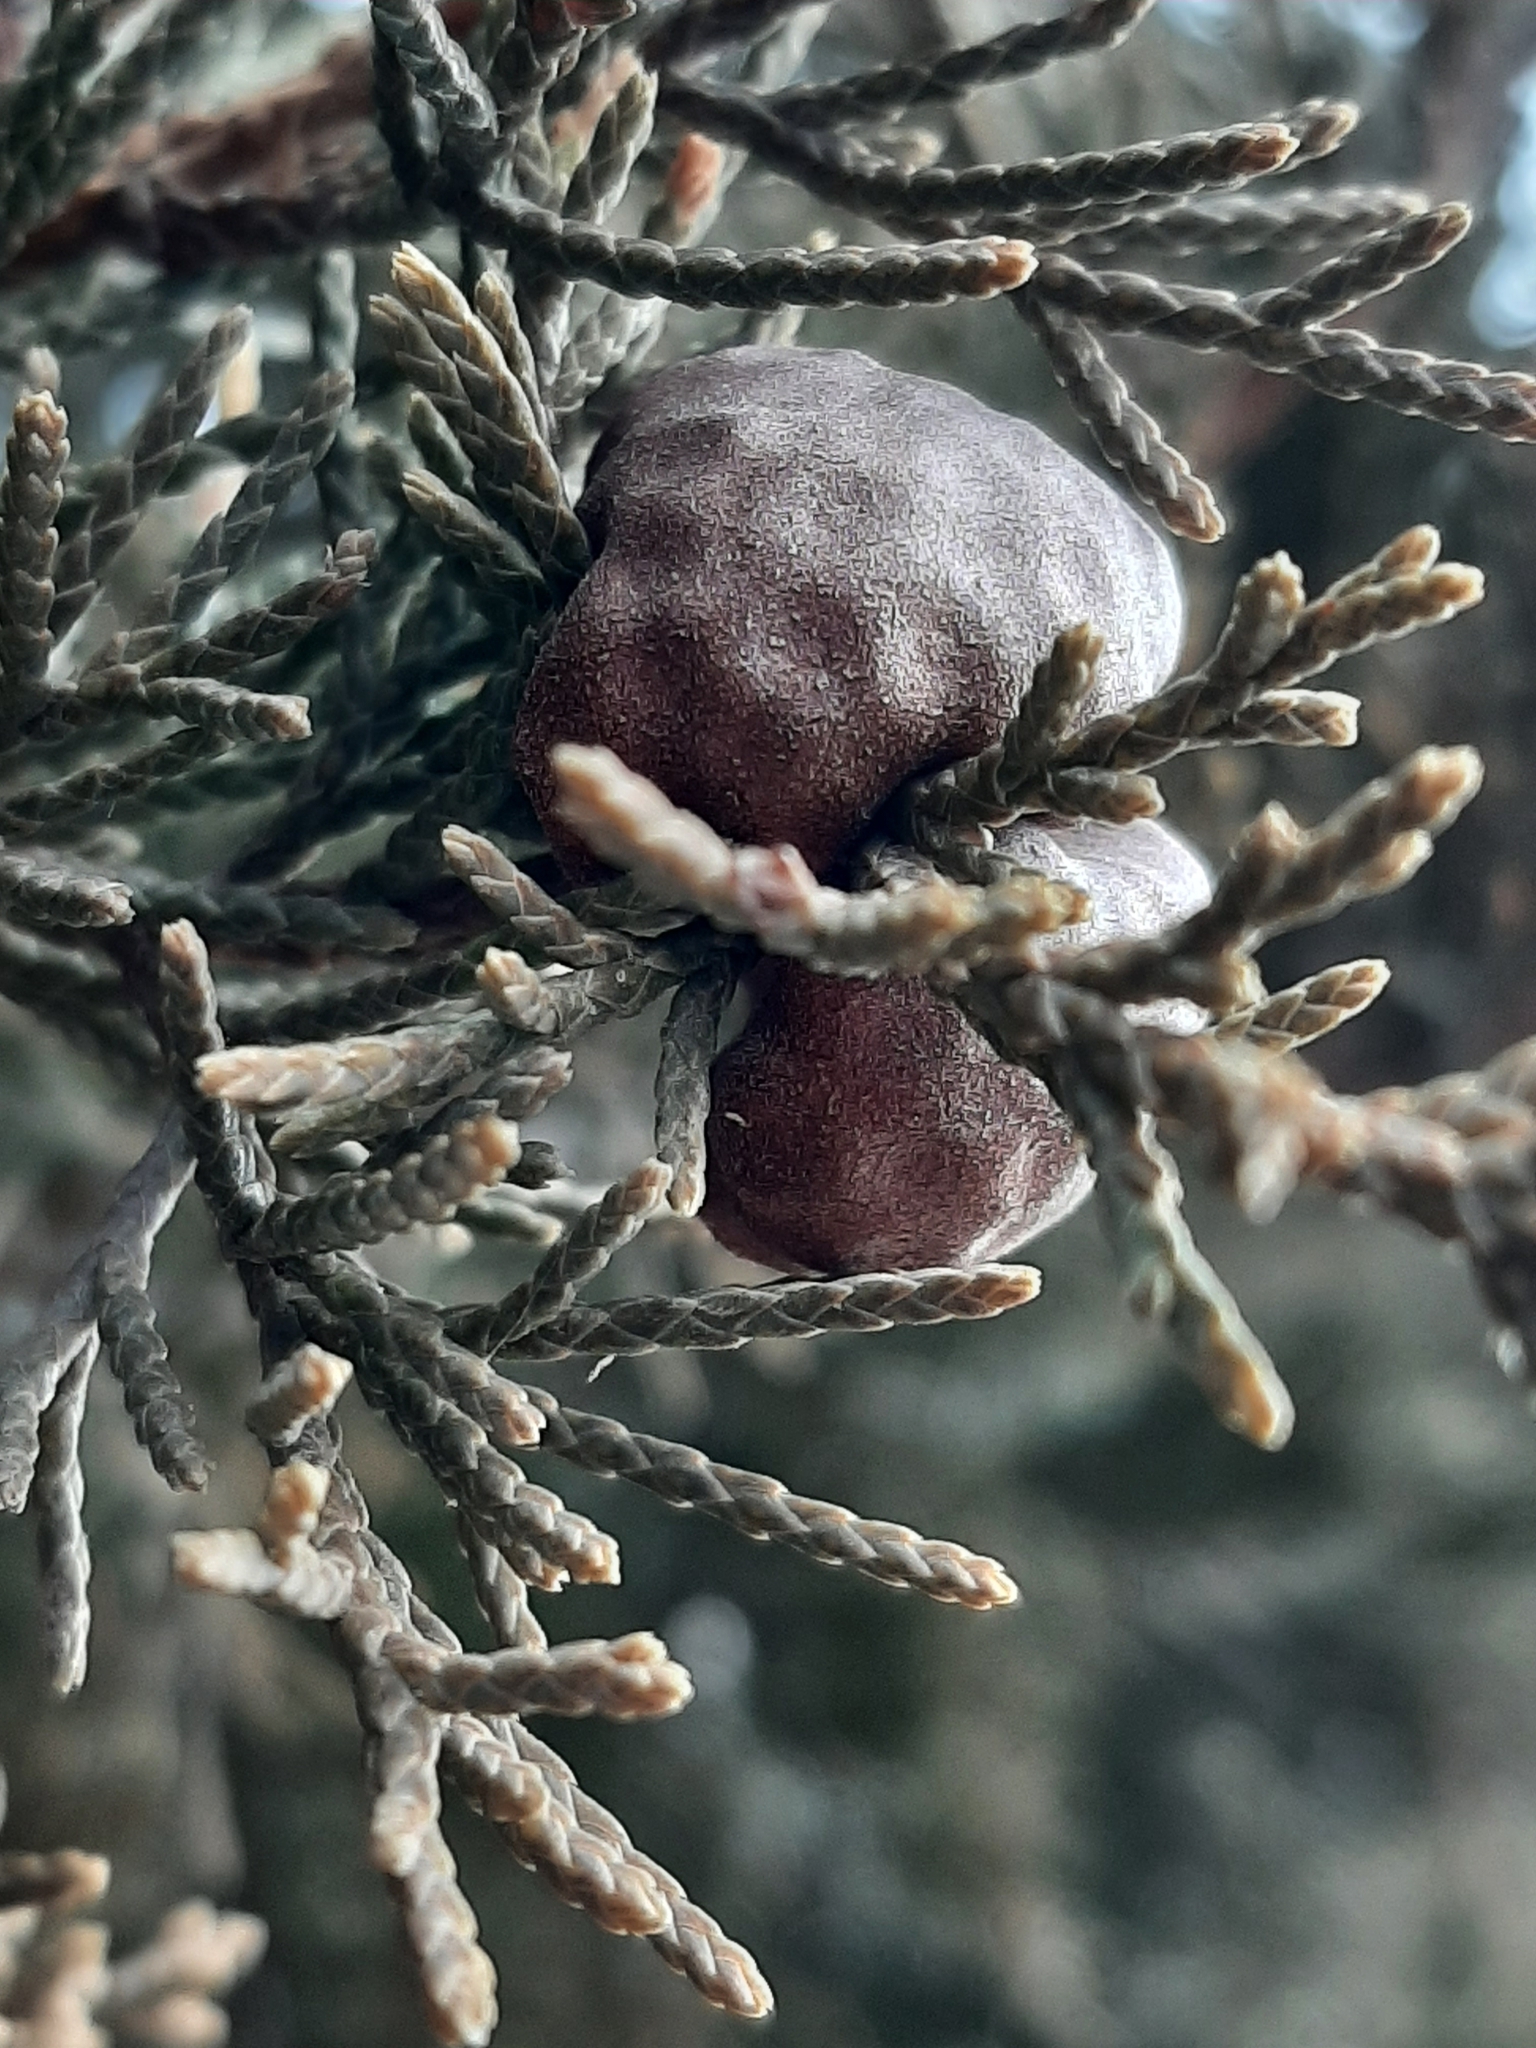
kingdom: Fungi
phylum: Basidiomycota
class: Pucciniomycetes
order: Pucciniales
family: Gymnosporangiaceae
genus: Gymnosporangium
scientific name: Gymnosporangium juniperi-virginianae
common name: Juniper-apple rust
